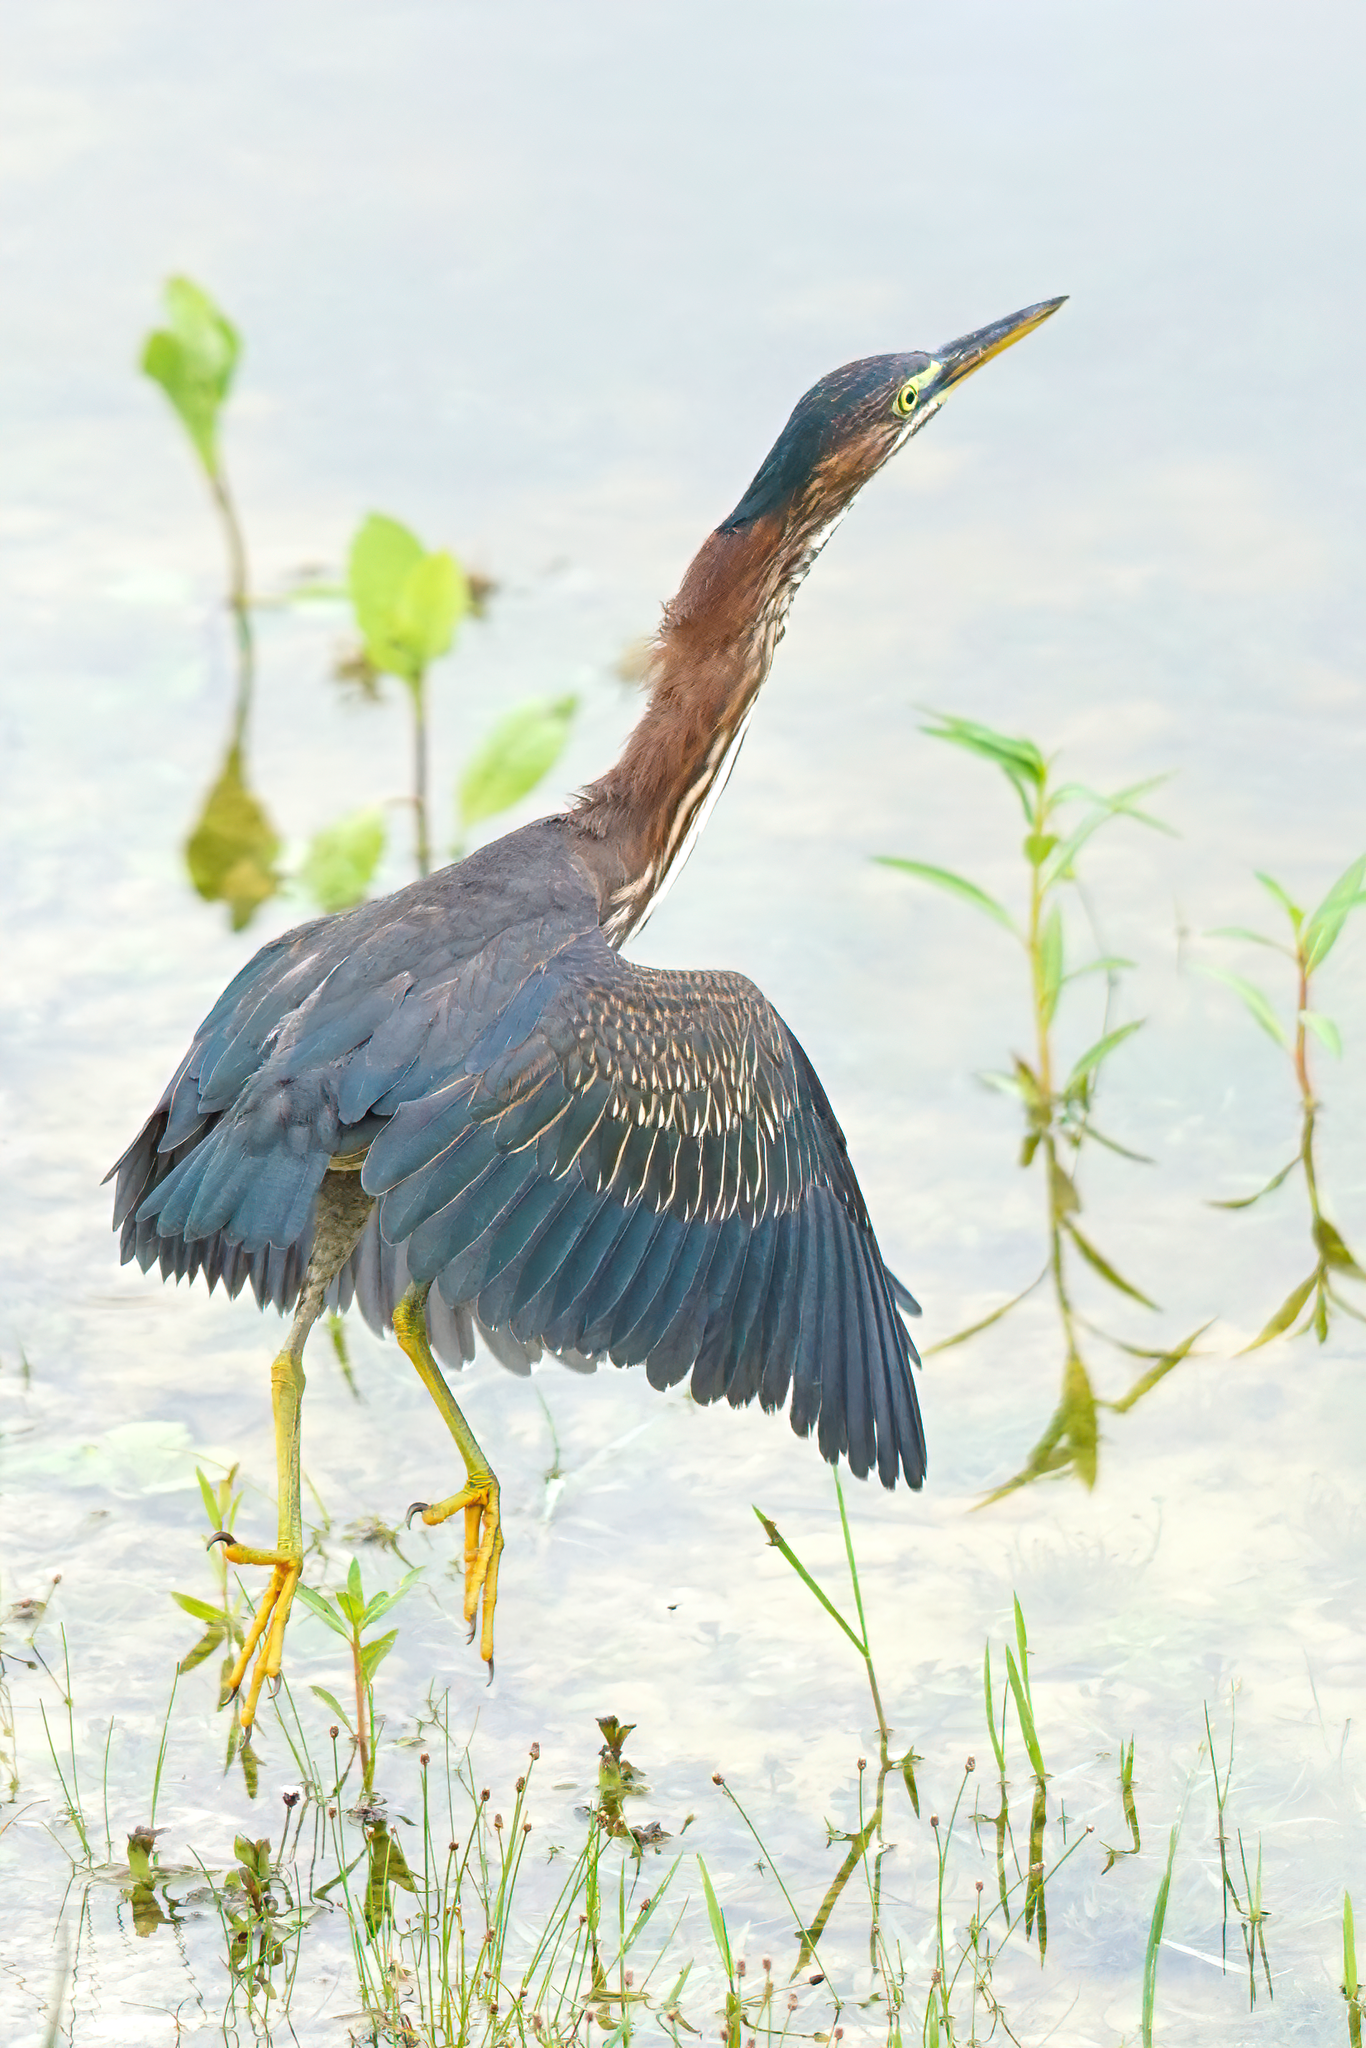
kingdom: Animalia
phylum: Chordata
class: Aves
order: Pelecaniformes
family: Ardeidae
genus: Butorides
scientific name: Butorides virescens
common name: Green heron
